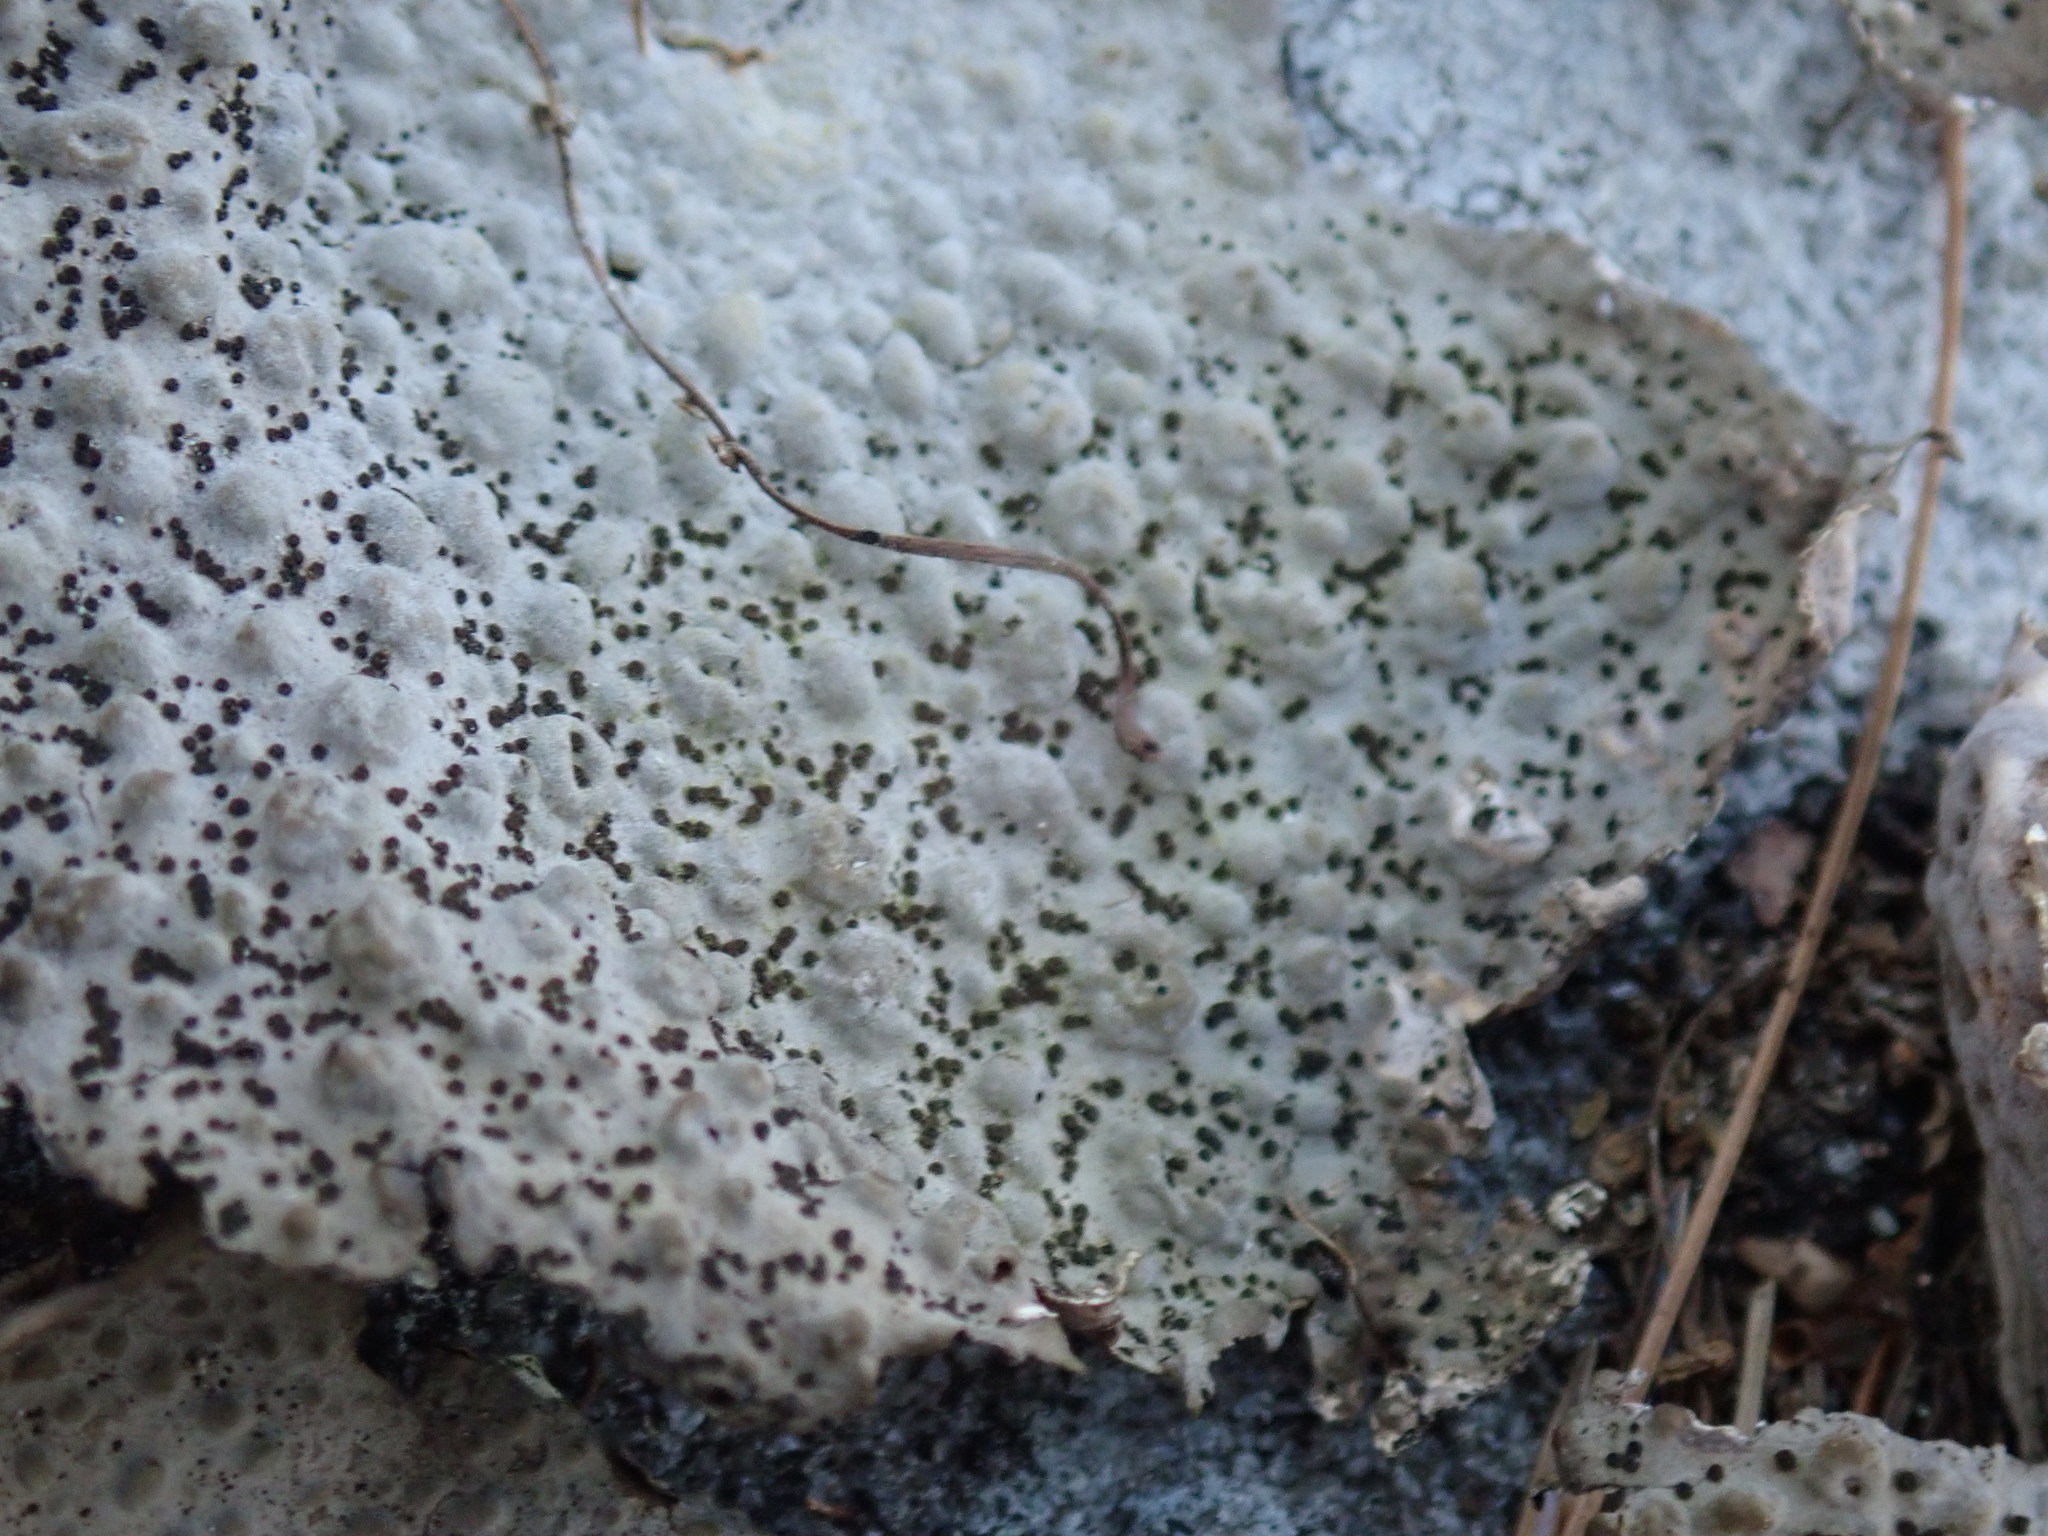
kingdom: Fungi
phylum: Ascomycota
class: Lecanoromycetes
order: Umbilicariales
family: Umbilicariaceae
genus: Lasallia
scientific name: Lasallia papulosa
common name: Common toadskin lichen
